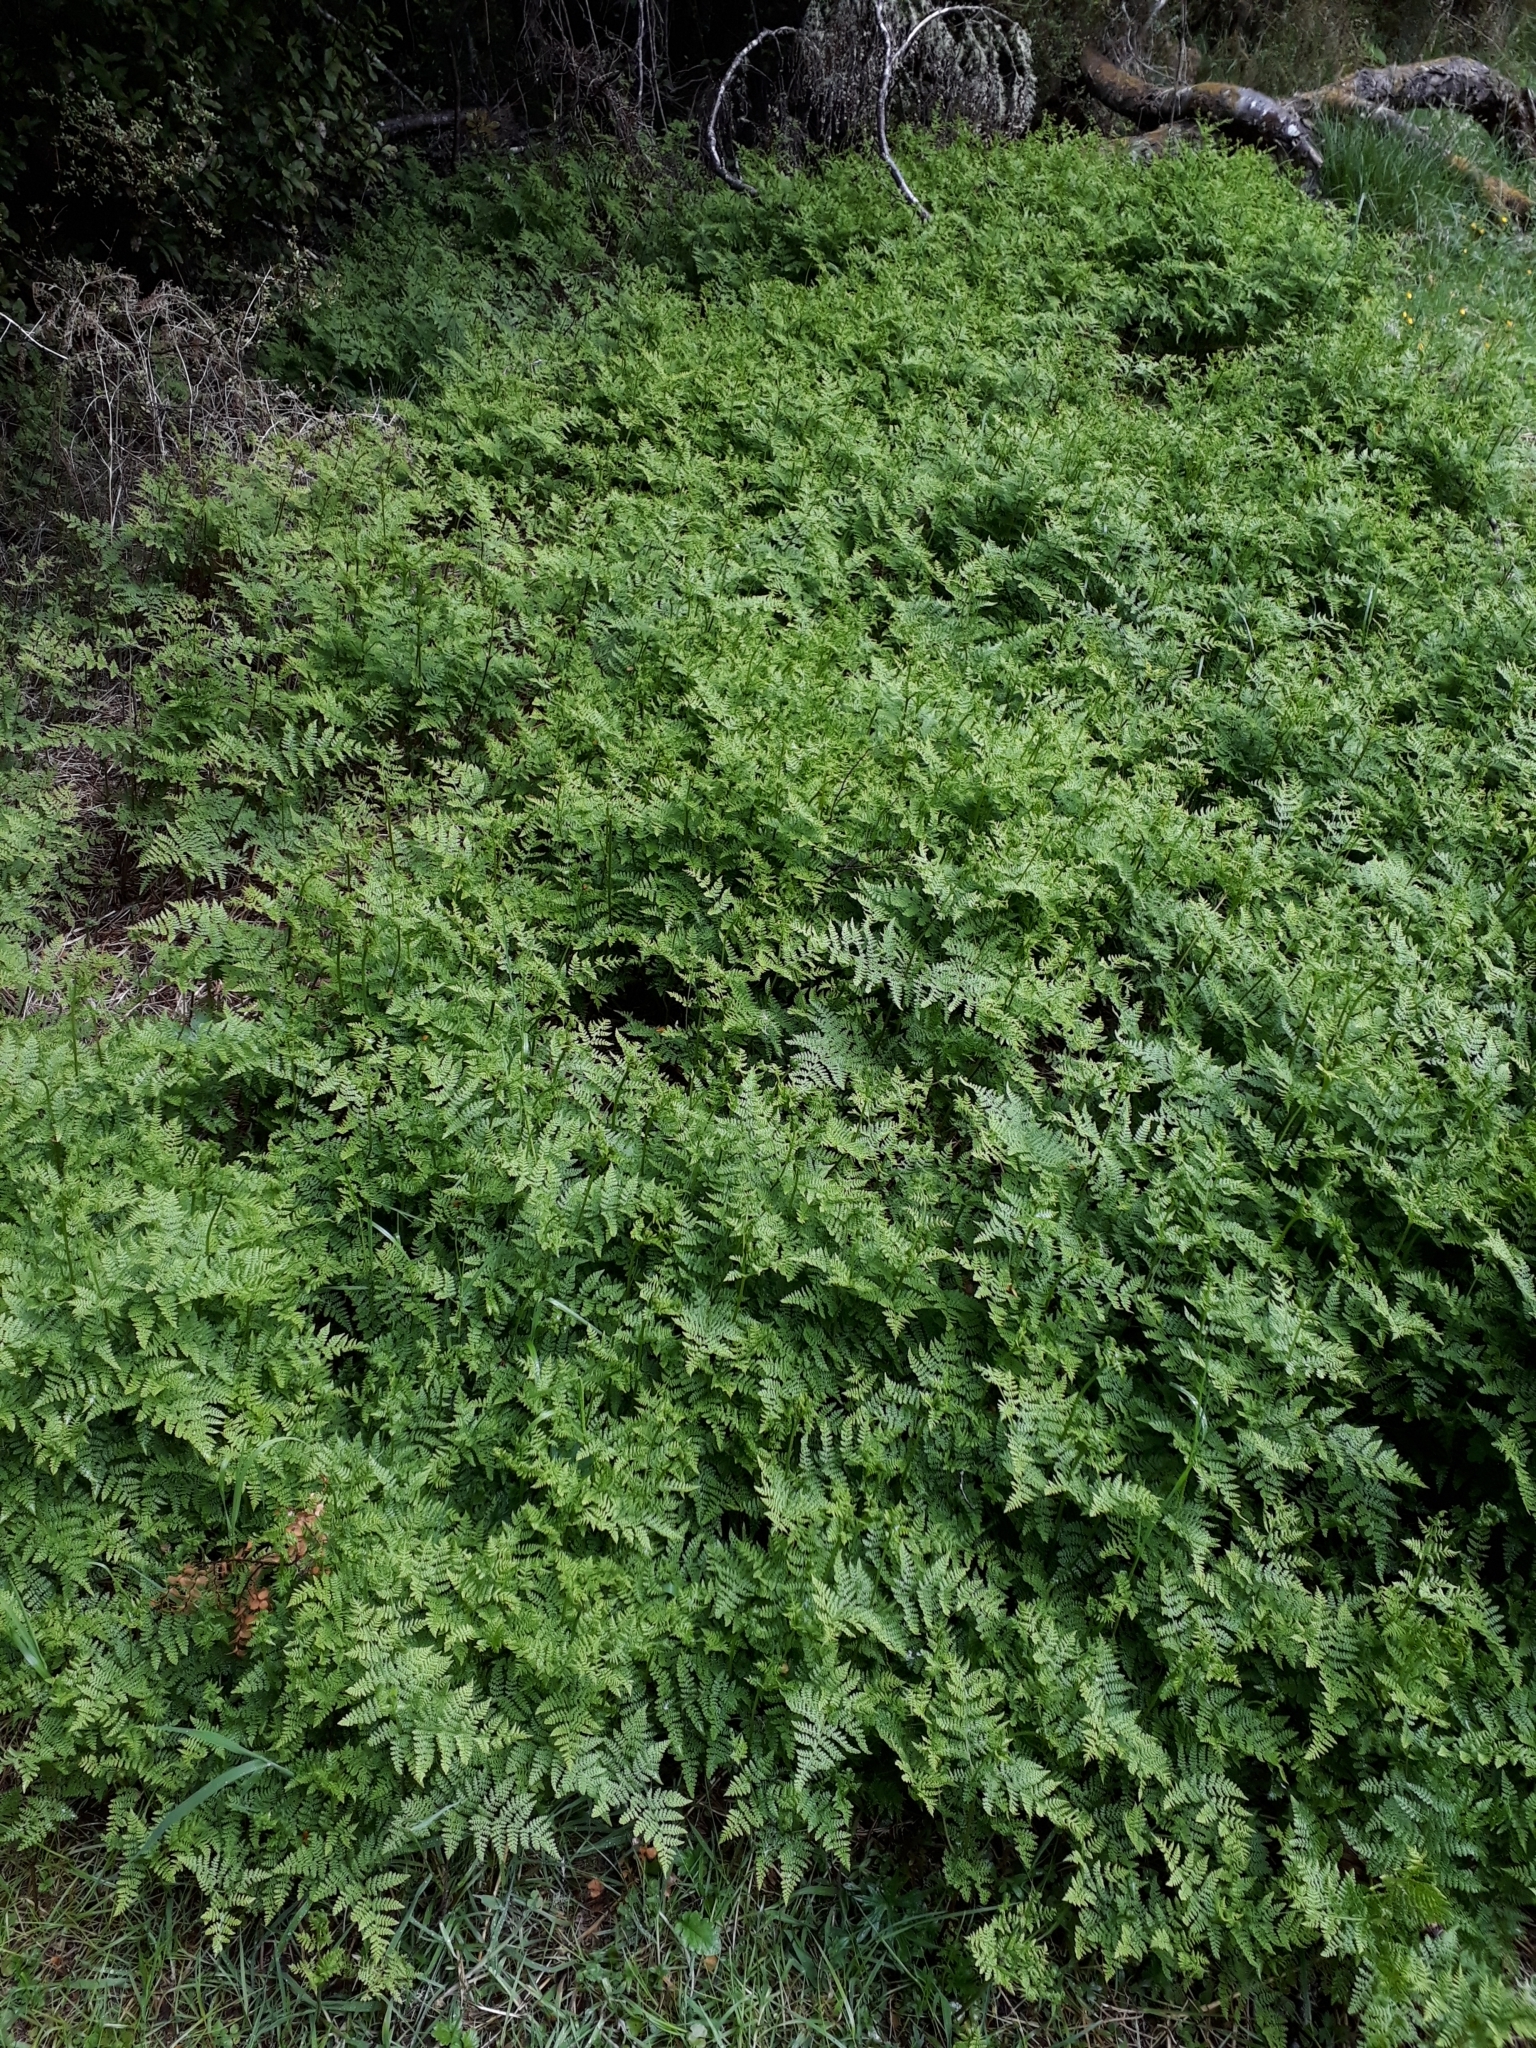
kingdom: Plantae
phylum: Tracheophyta
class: Polypodiopsida
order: Polypodiales
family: Dennstaedtiaceae
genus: Hypolepis
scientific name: Hypolepis millefolium
